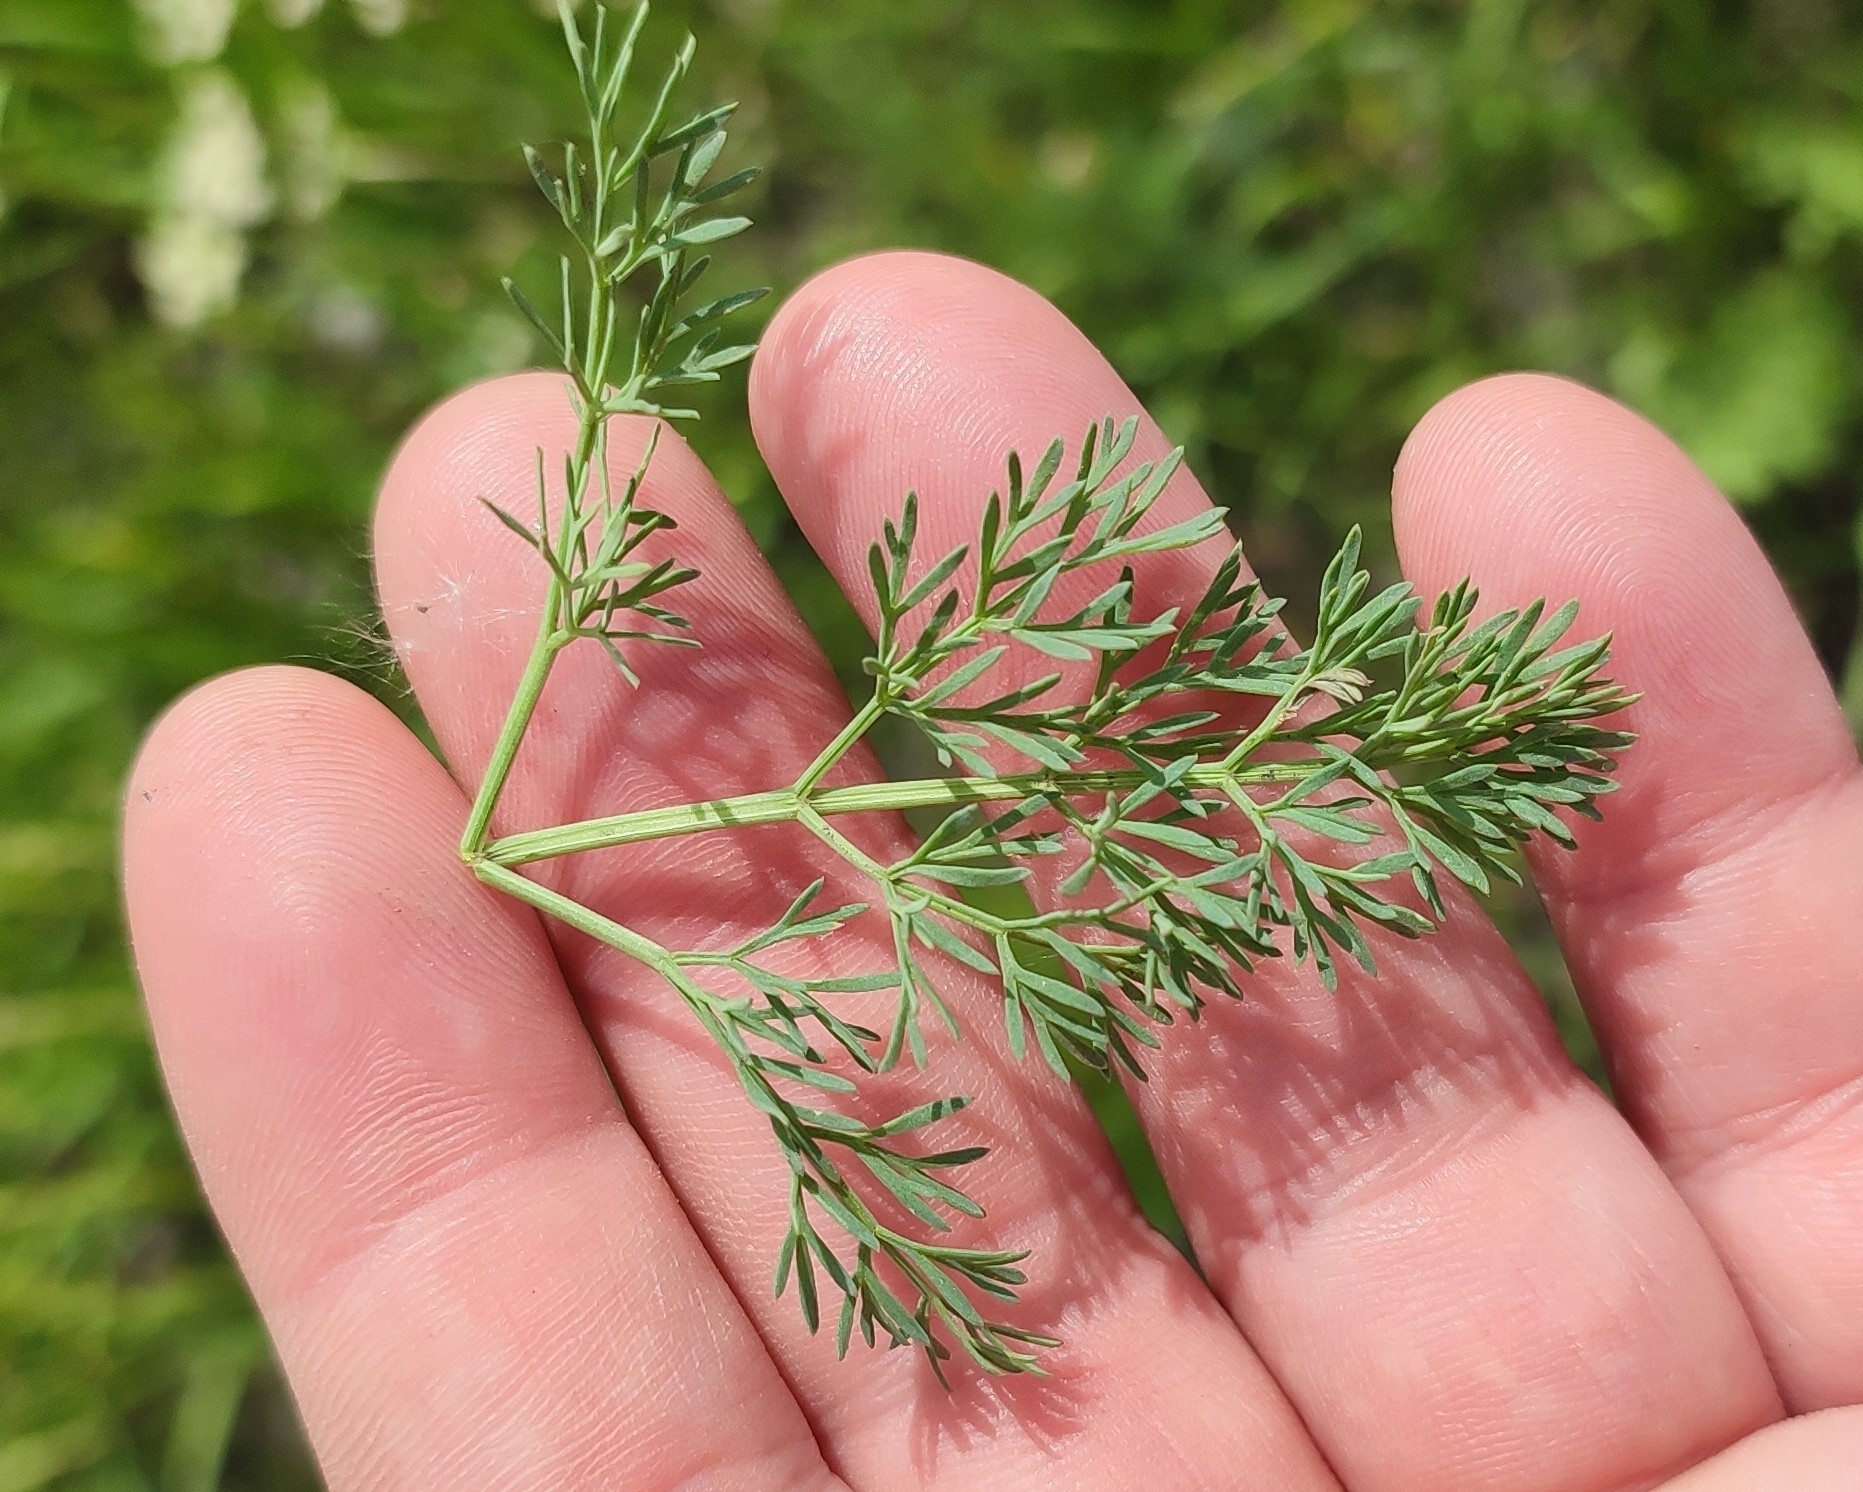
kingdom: Plantae
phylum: Tracheophyta
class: Magnoliopsida
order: Apiales
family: Apiaceae
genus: Seseli
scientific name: Seseli ledebourii
